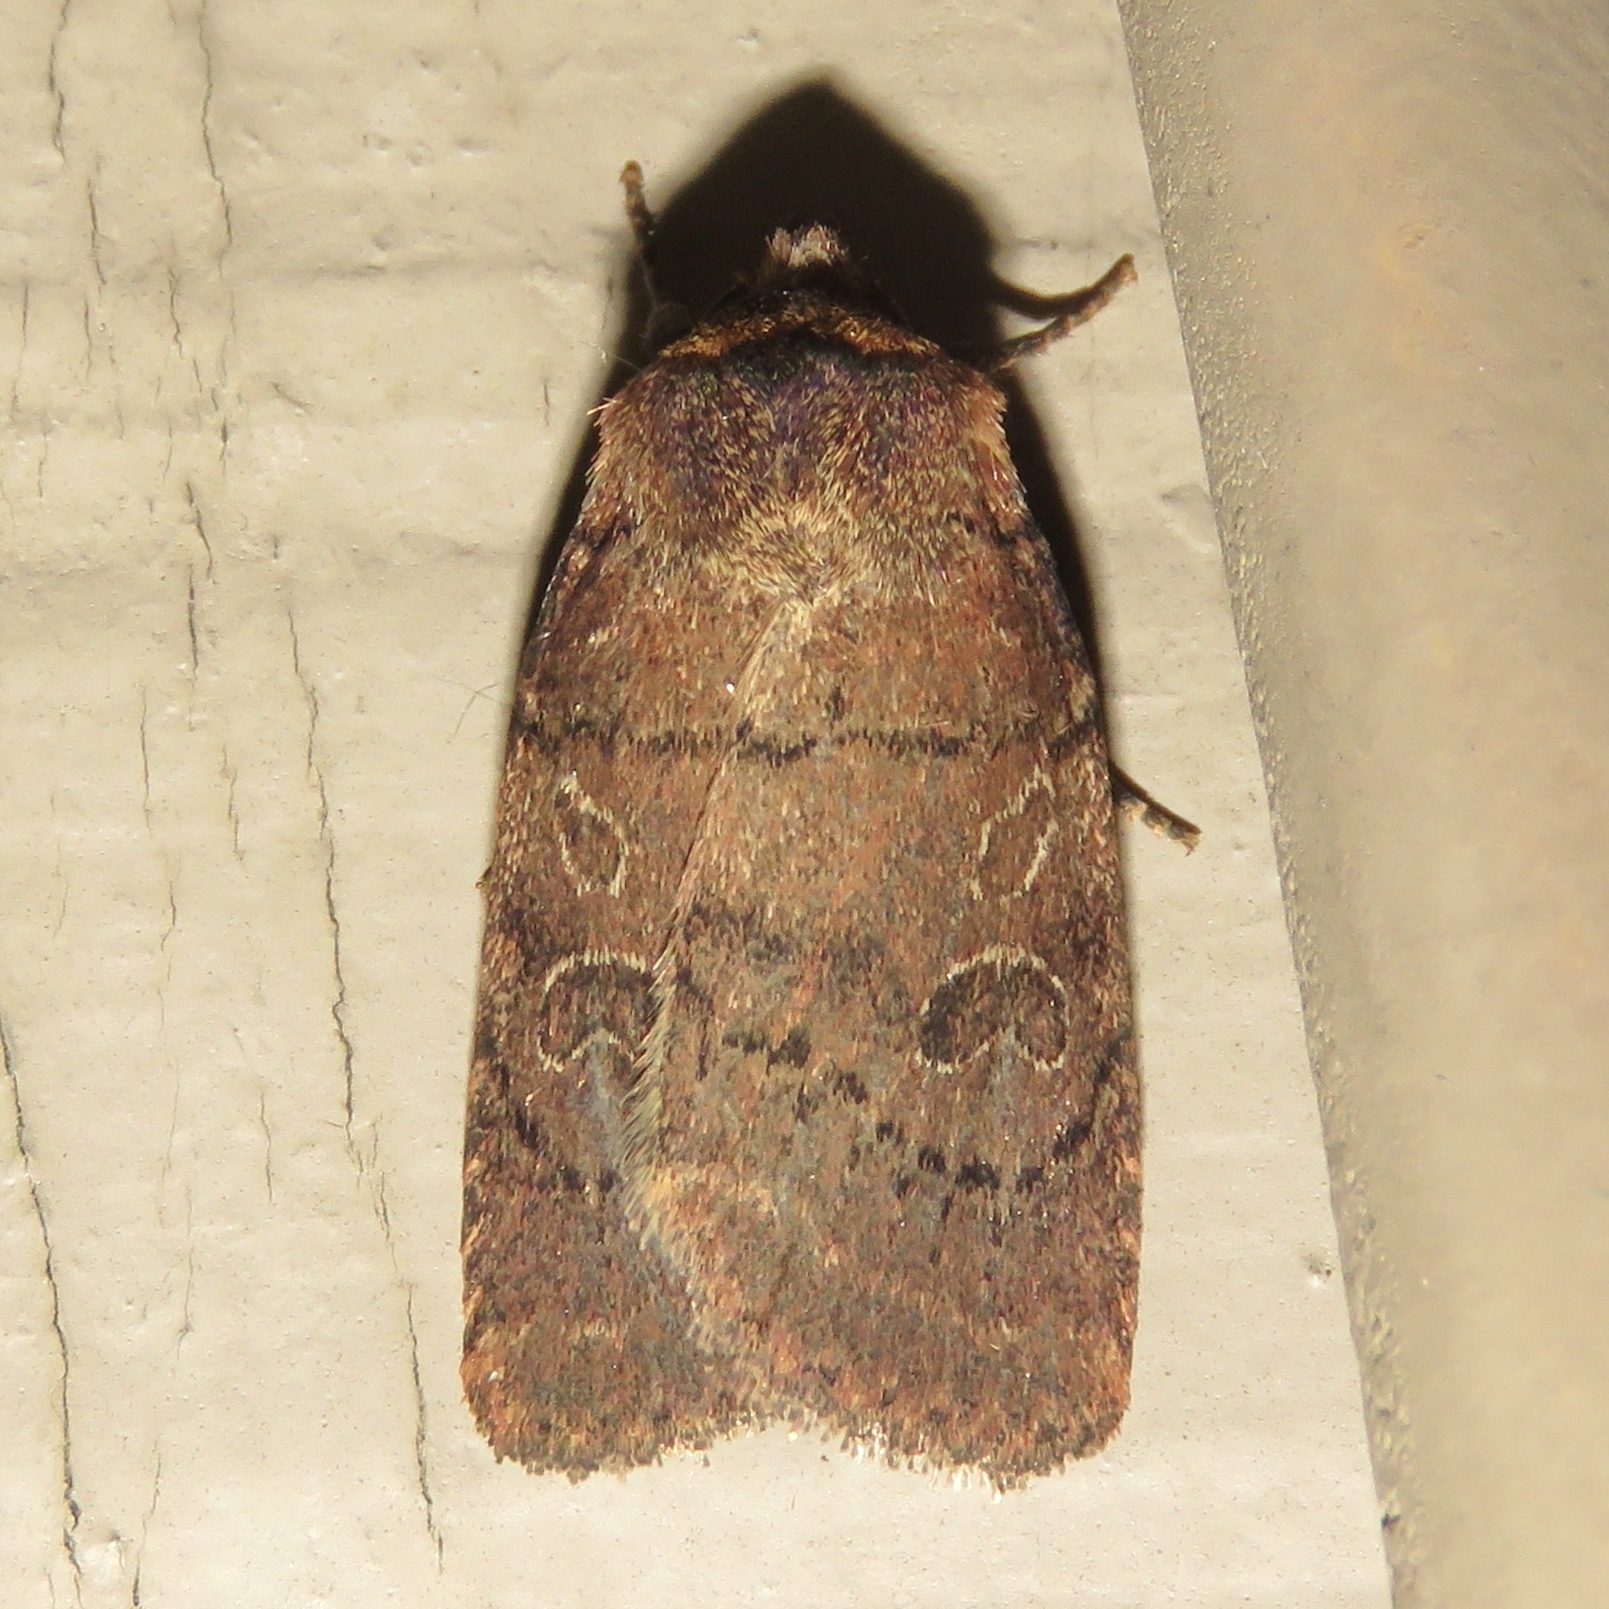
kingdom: Animalia
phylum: Arthropoda
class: Insecta
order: Lepidoptera
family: Noctuidae
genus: Orthodes
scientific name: Orthodes cynica
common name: Cynical quaker
